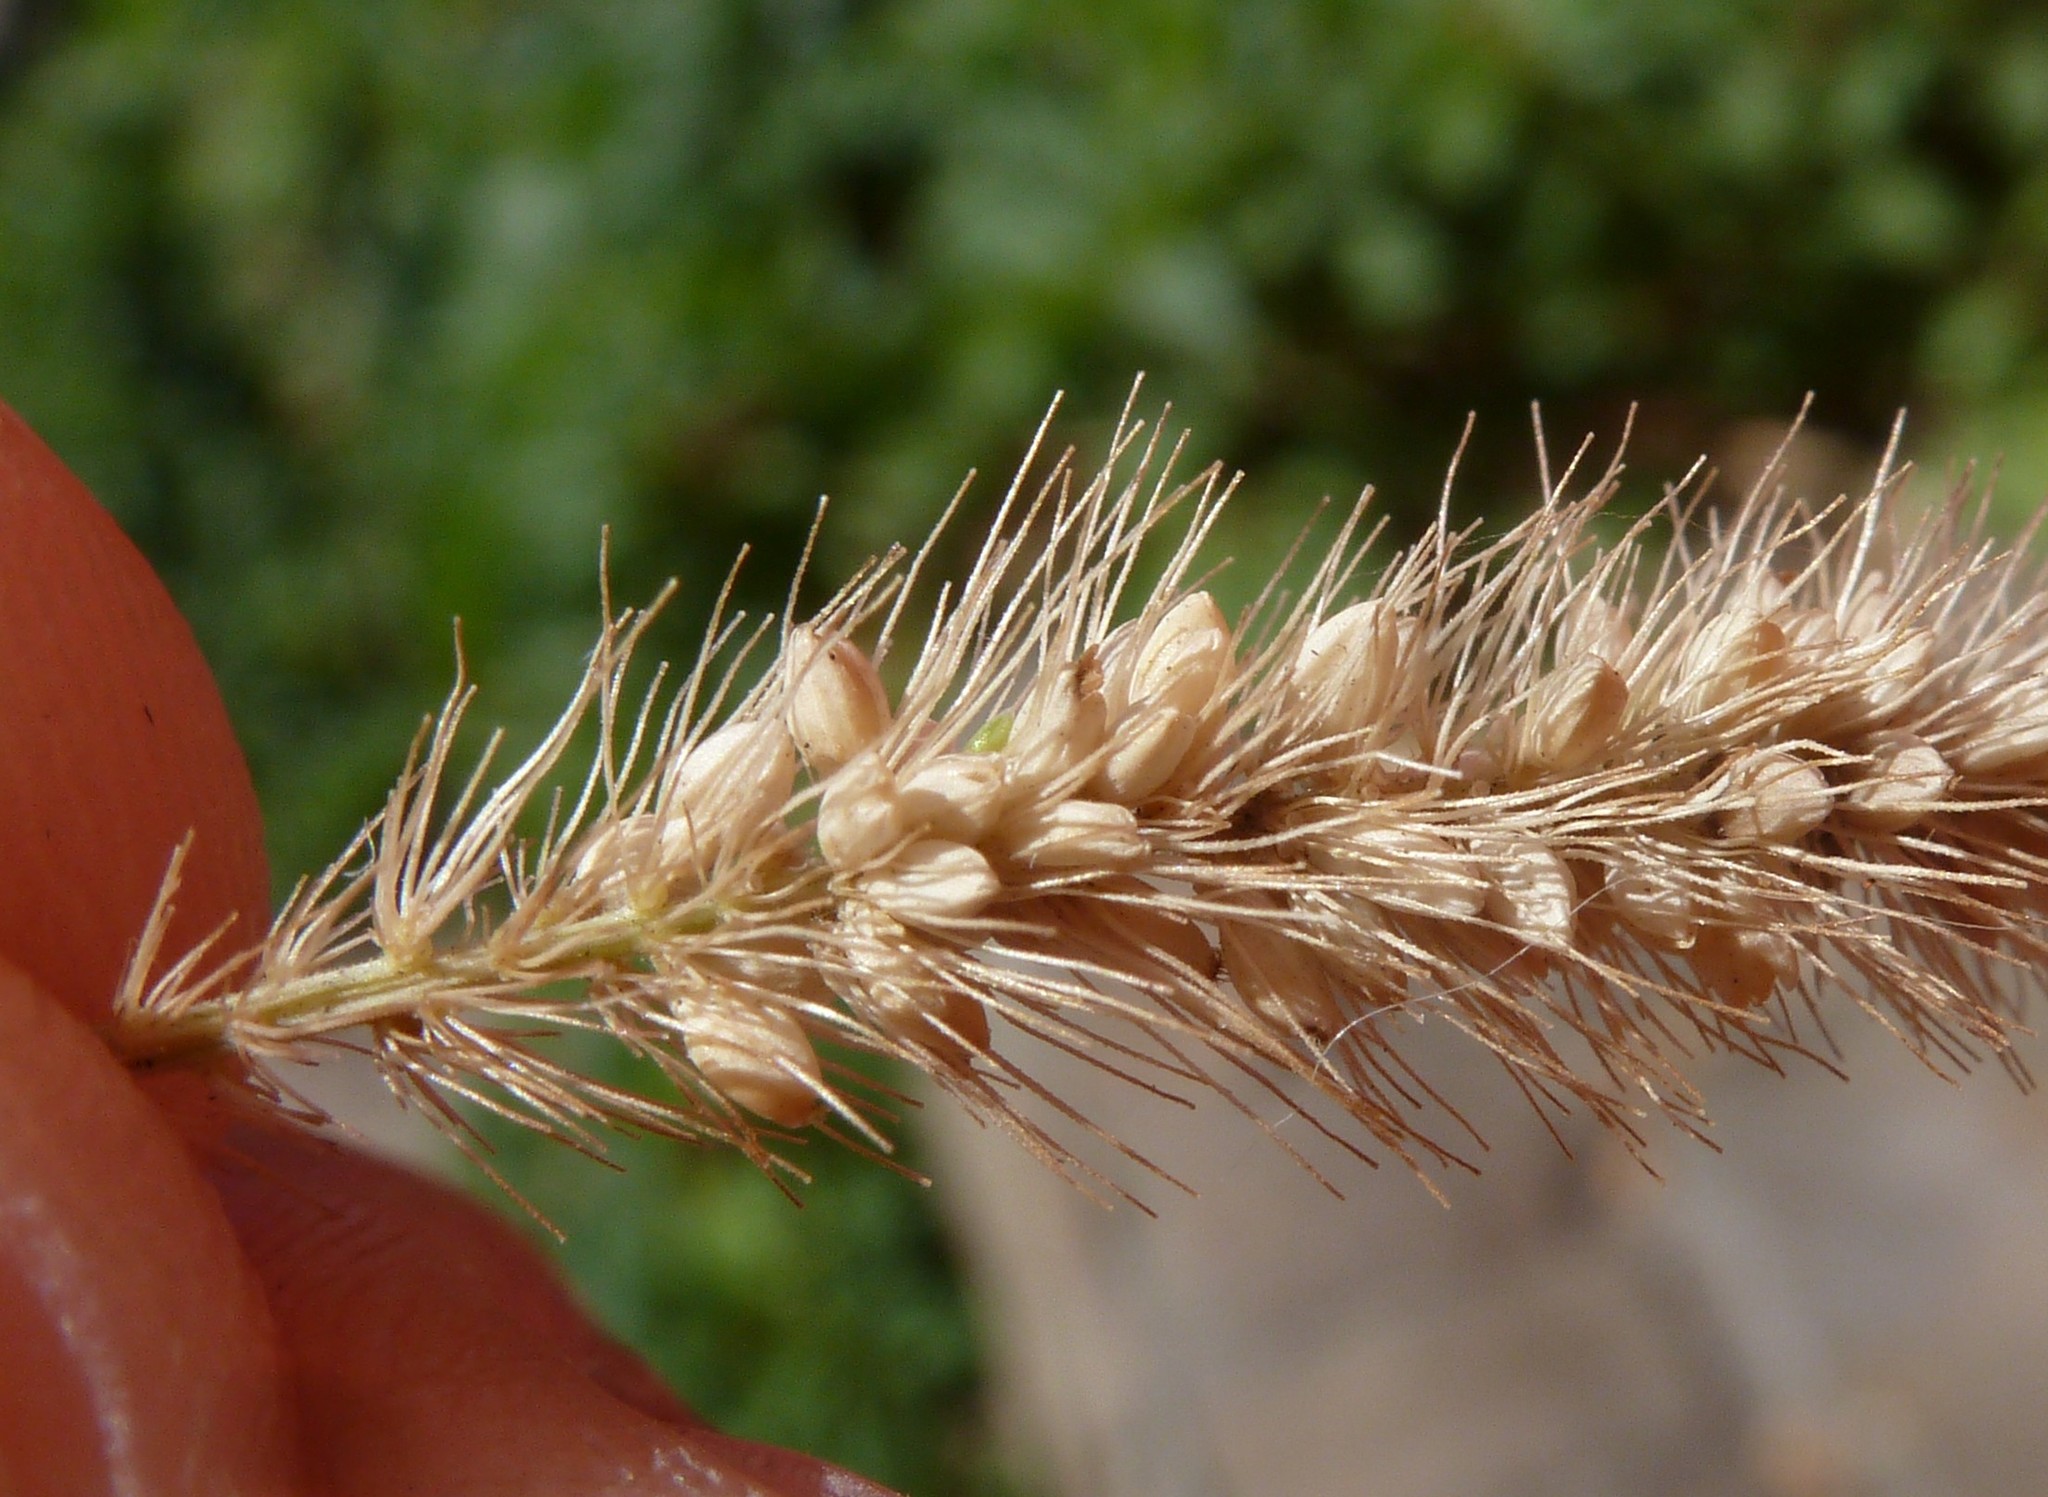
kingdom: Plantae
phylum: Tracheophyta
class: Liliopsida
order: Poales
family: Poaceae
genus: Setaria
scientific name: Setaria viridis
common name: Green bristlegrass
